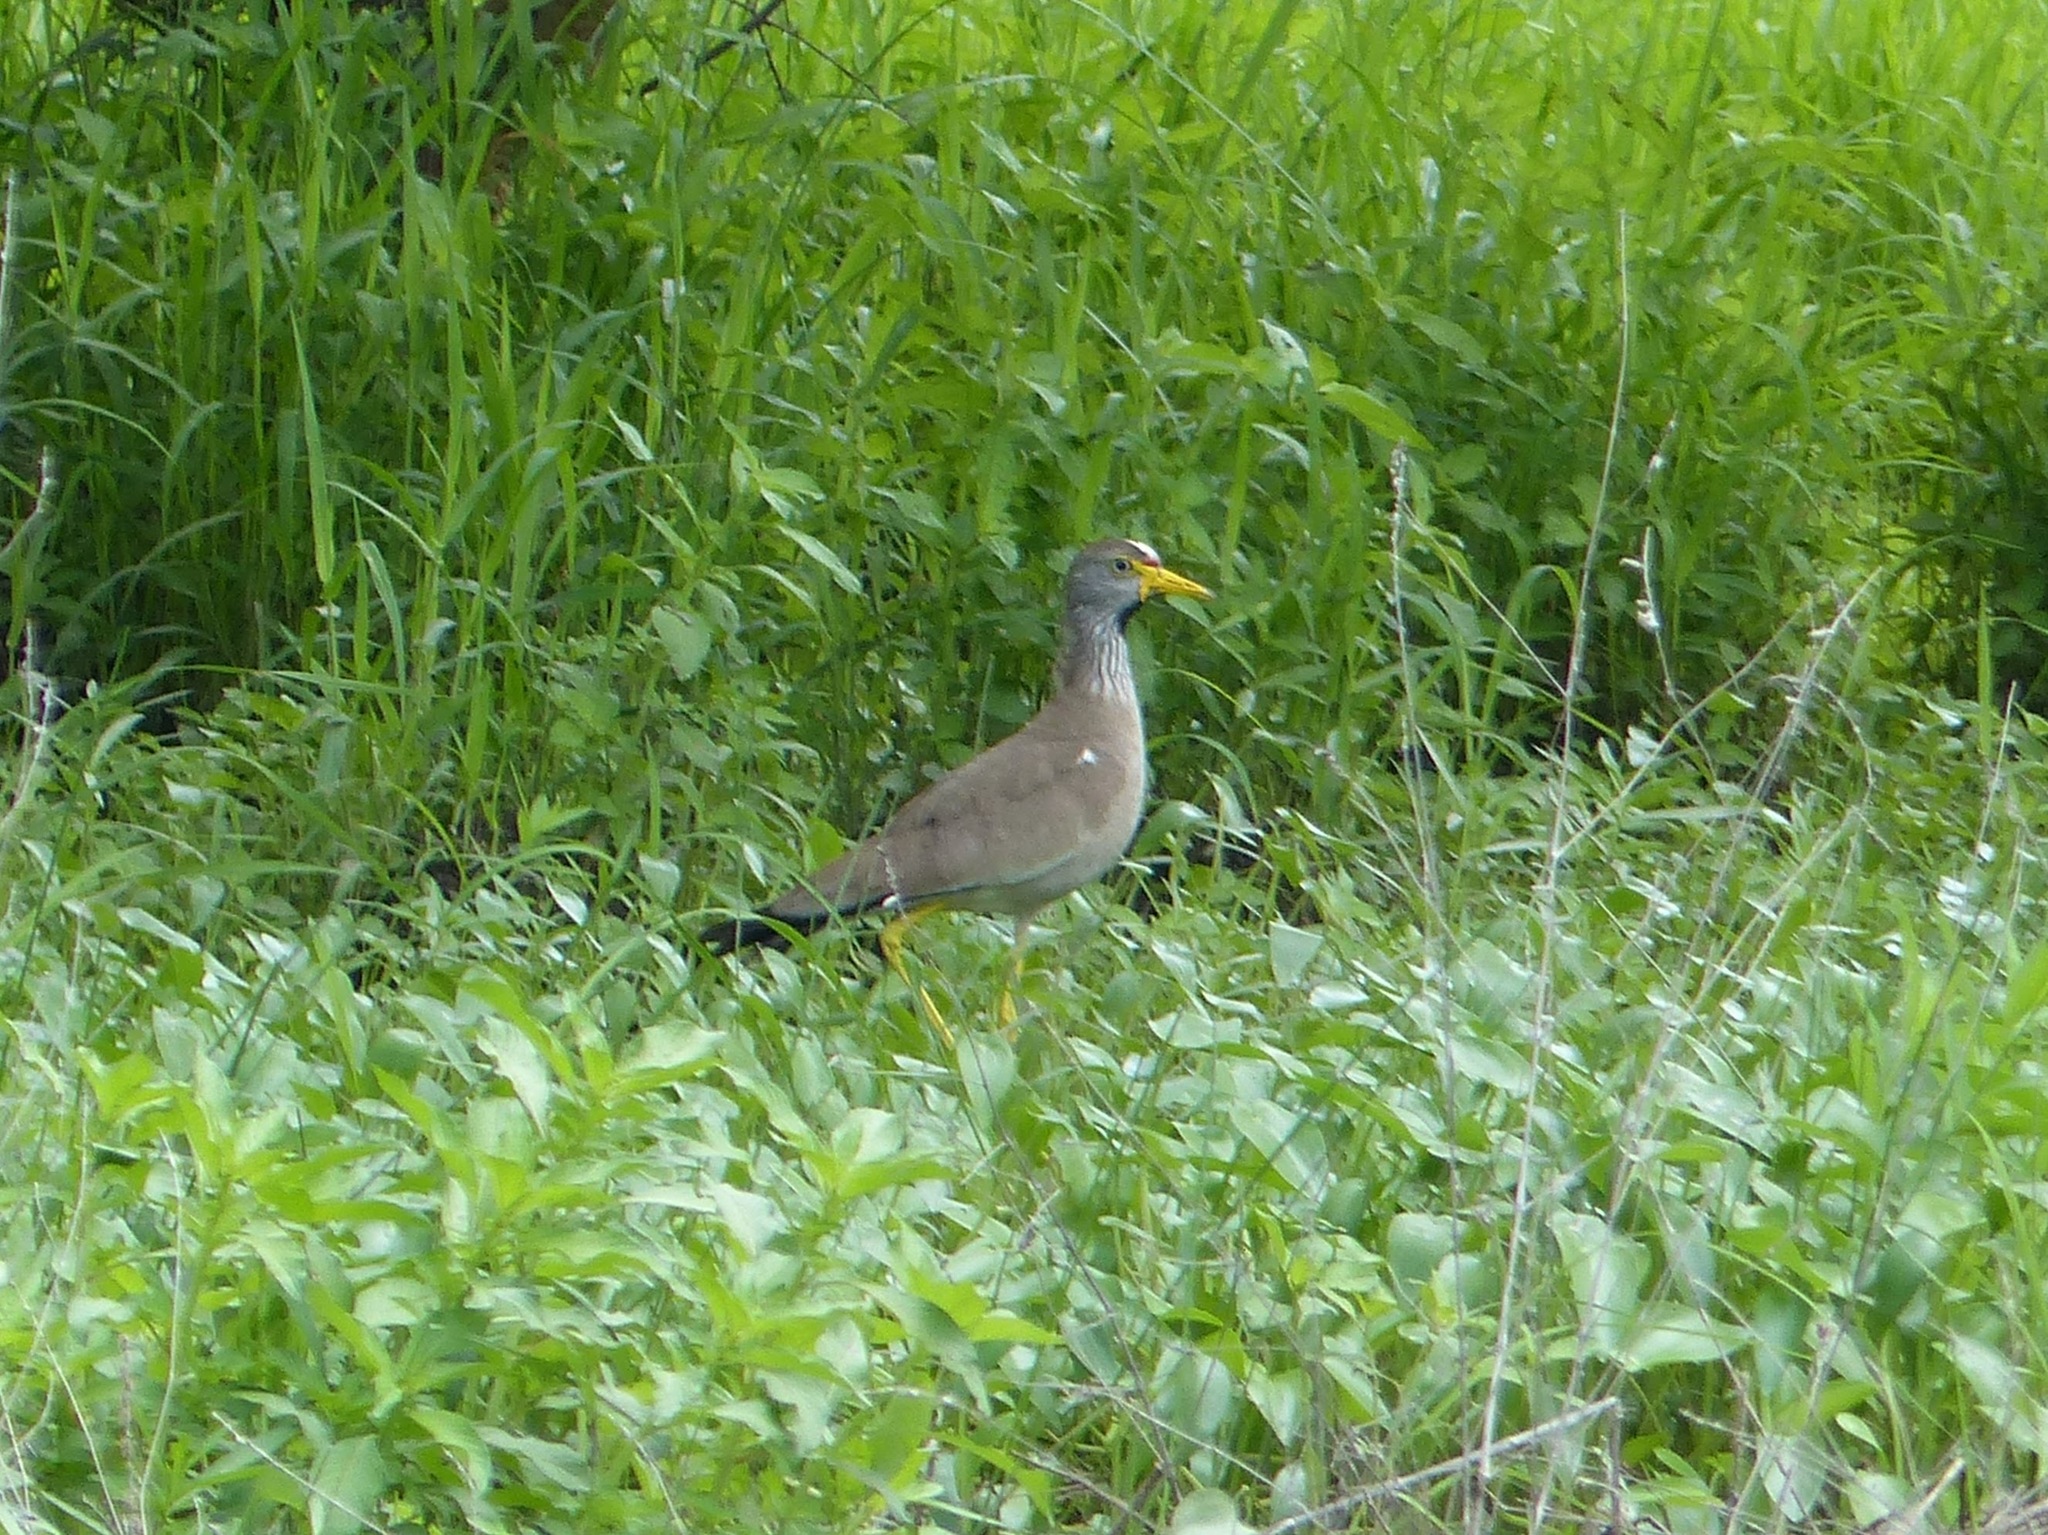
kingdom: Animalia
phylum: Chordata
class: Aves
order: Charadriiformes
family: Charadriidae
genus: Vanellus
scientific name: Vanellus senegallus
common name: African wattled lapwing
